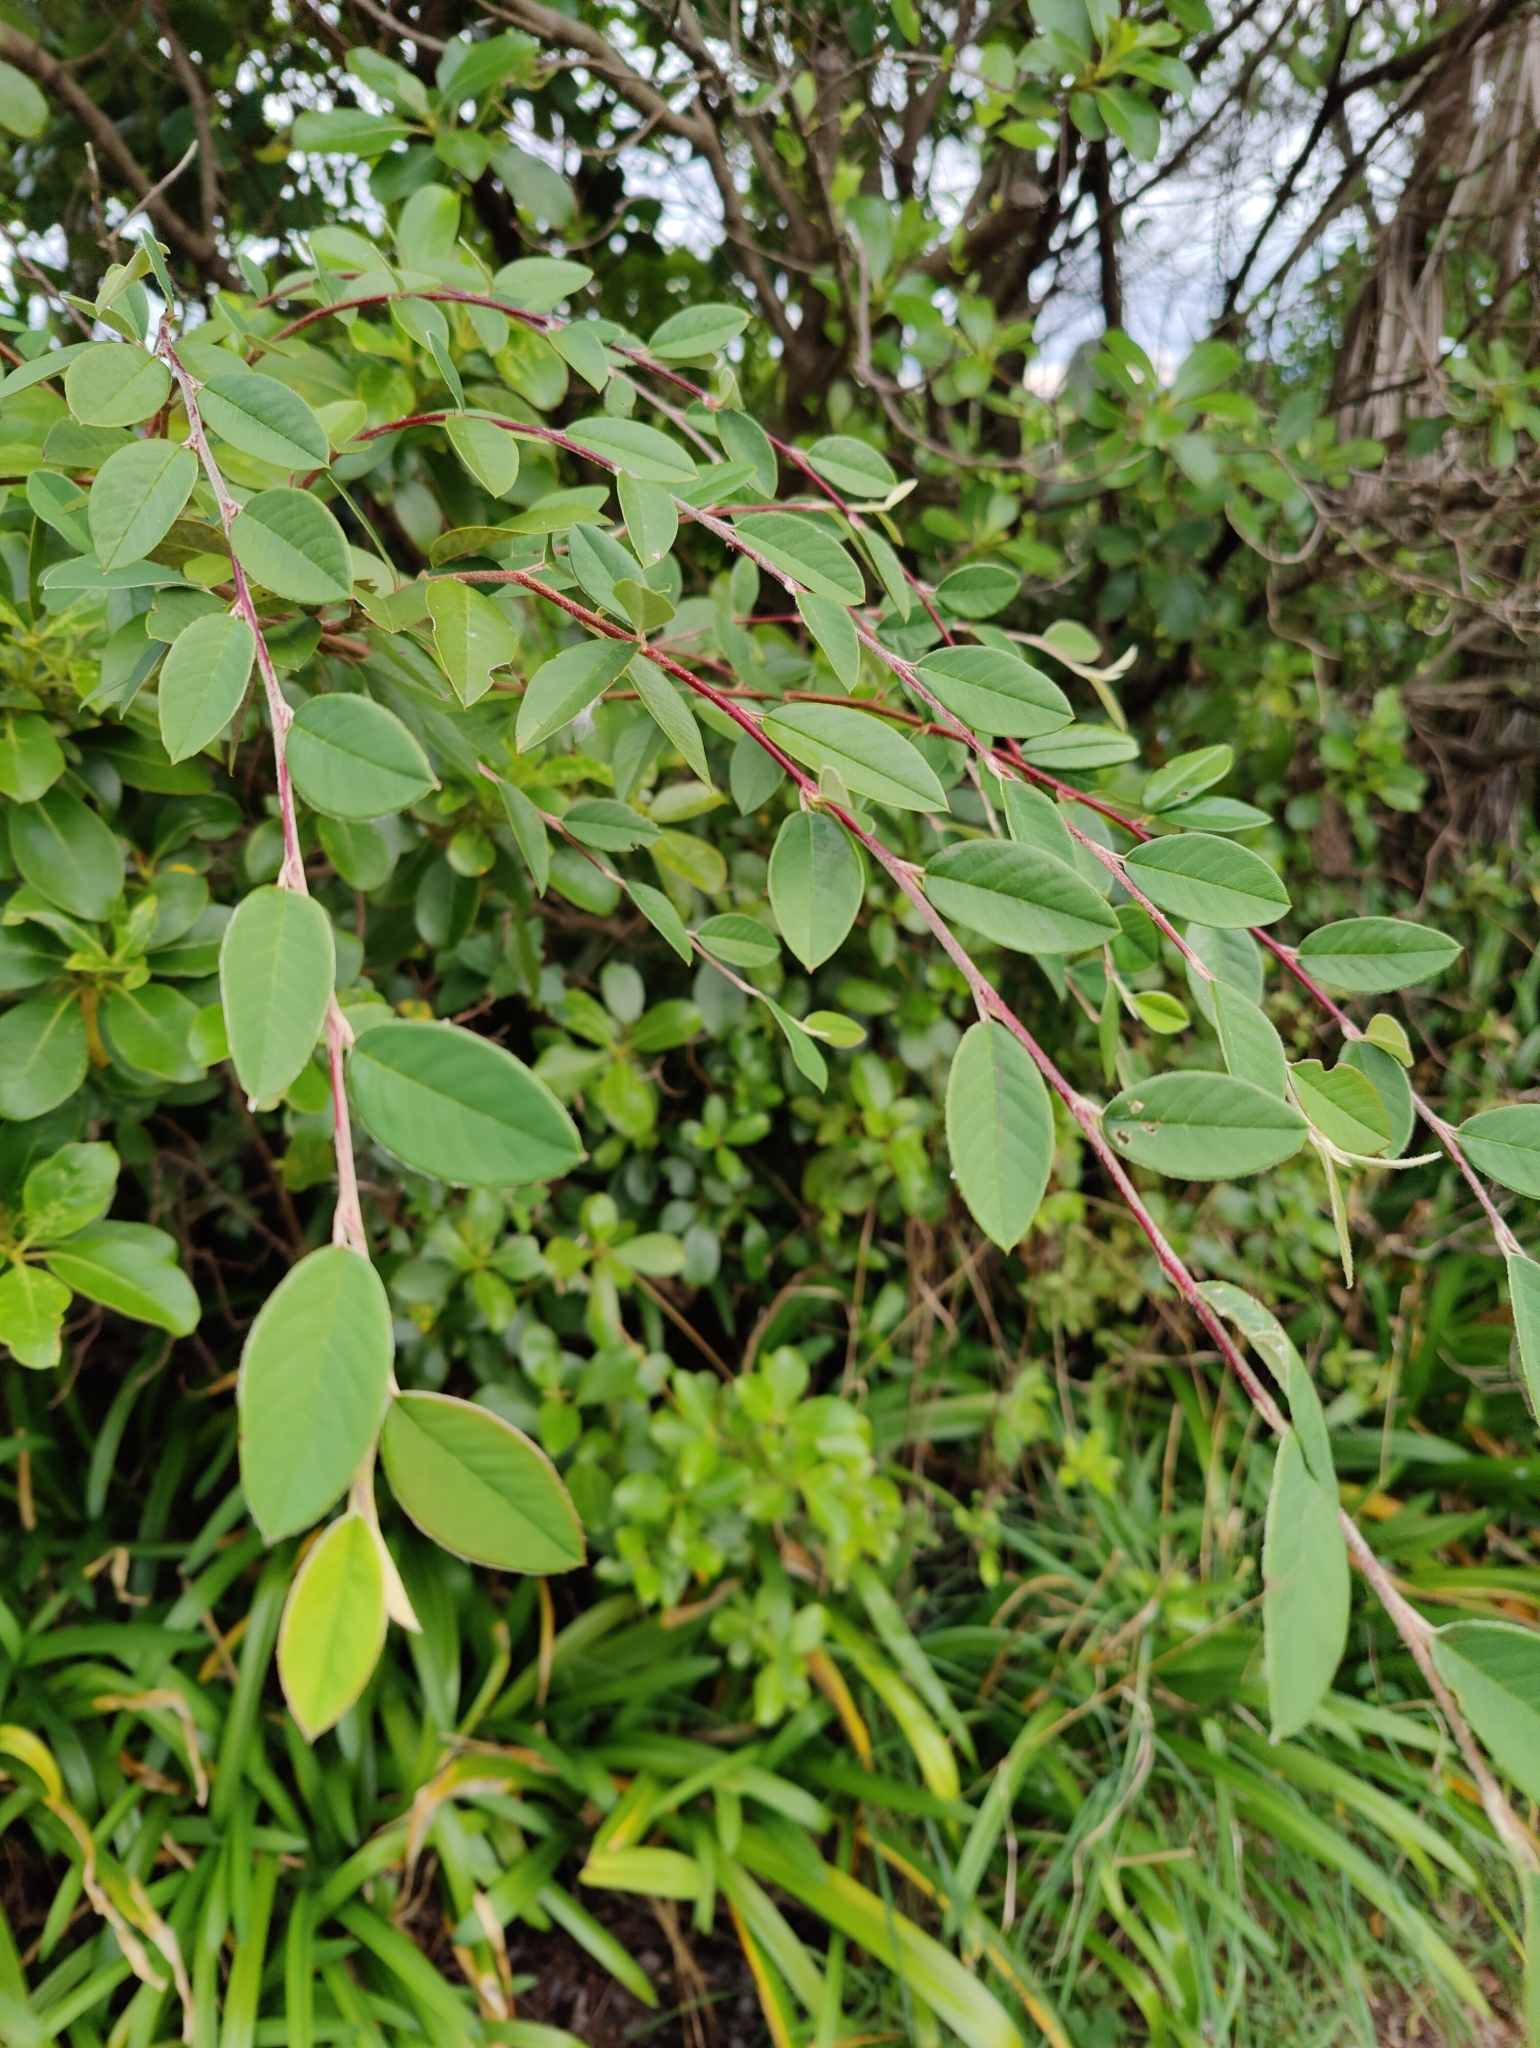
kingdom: Plantae
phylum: Tracheophyta
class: Magnoliopsida
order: Rosales
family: Rosaceae
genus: Cotoneaster
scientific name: Cotoneaster glaucophyllus
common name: Glaucous cotoneaster
